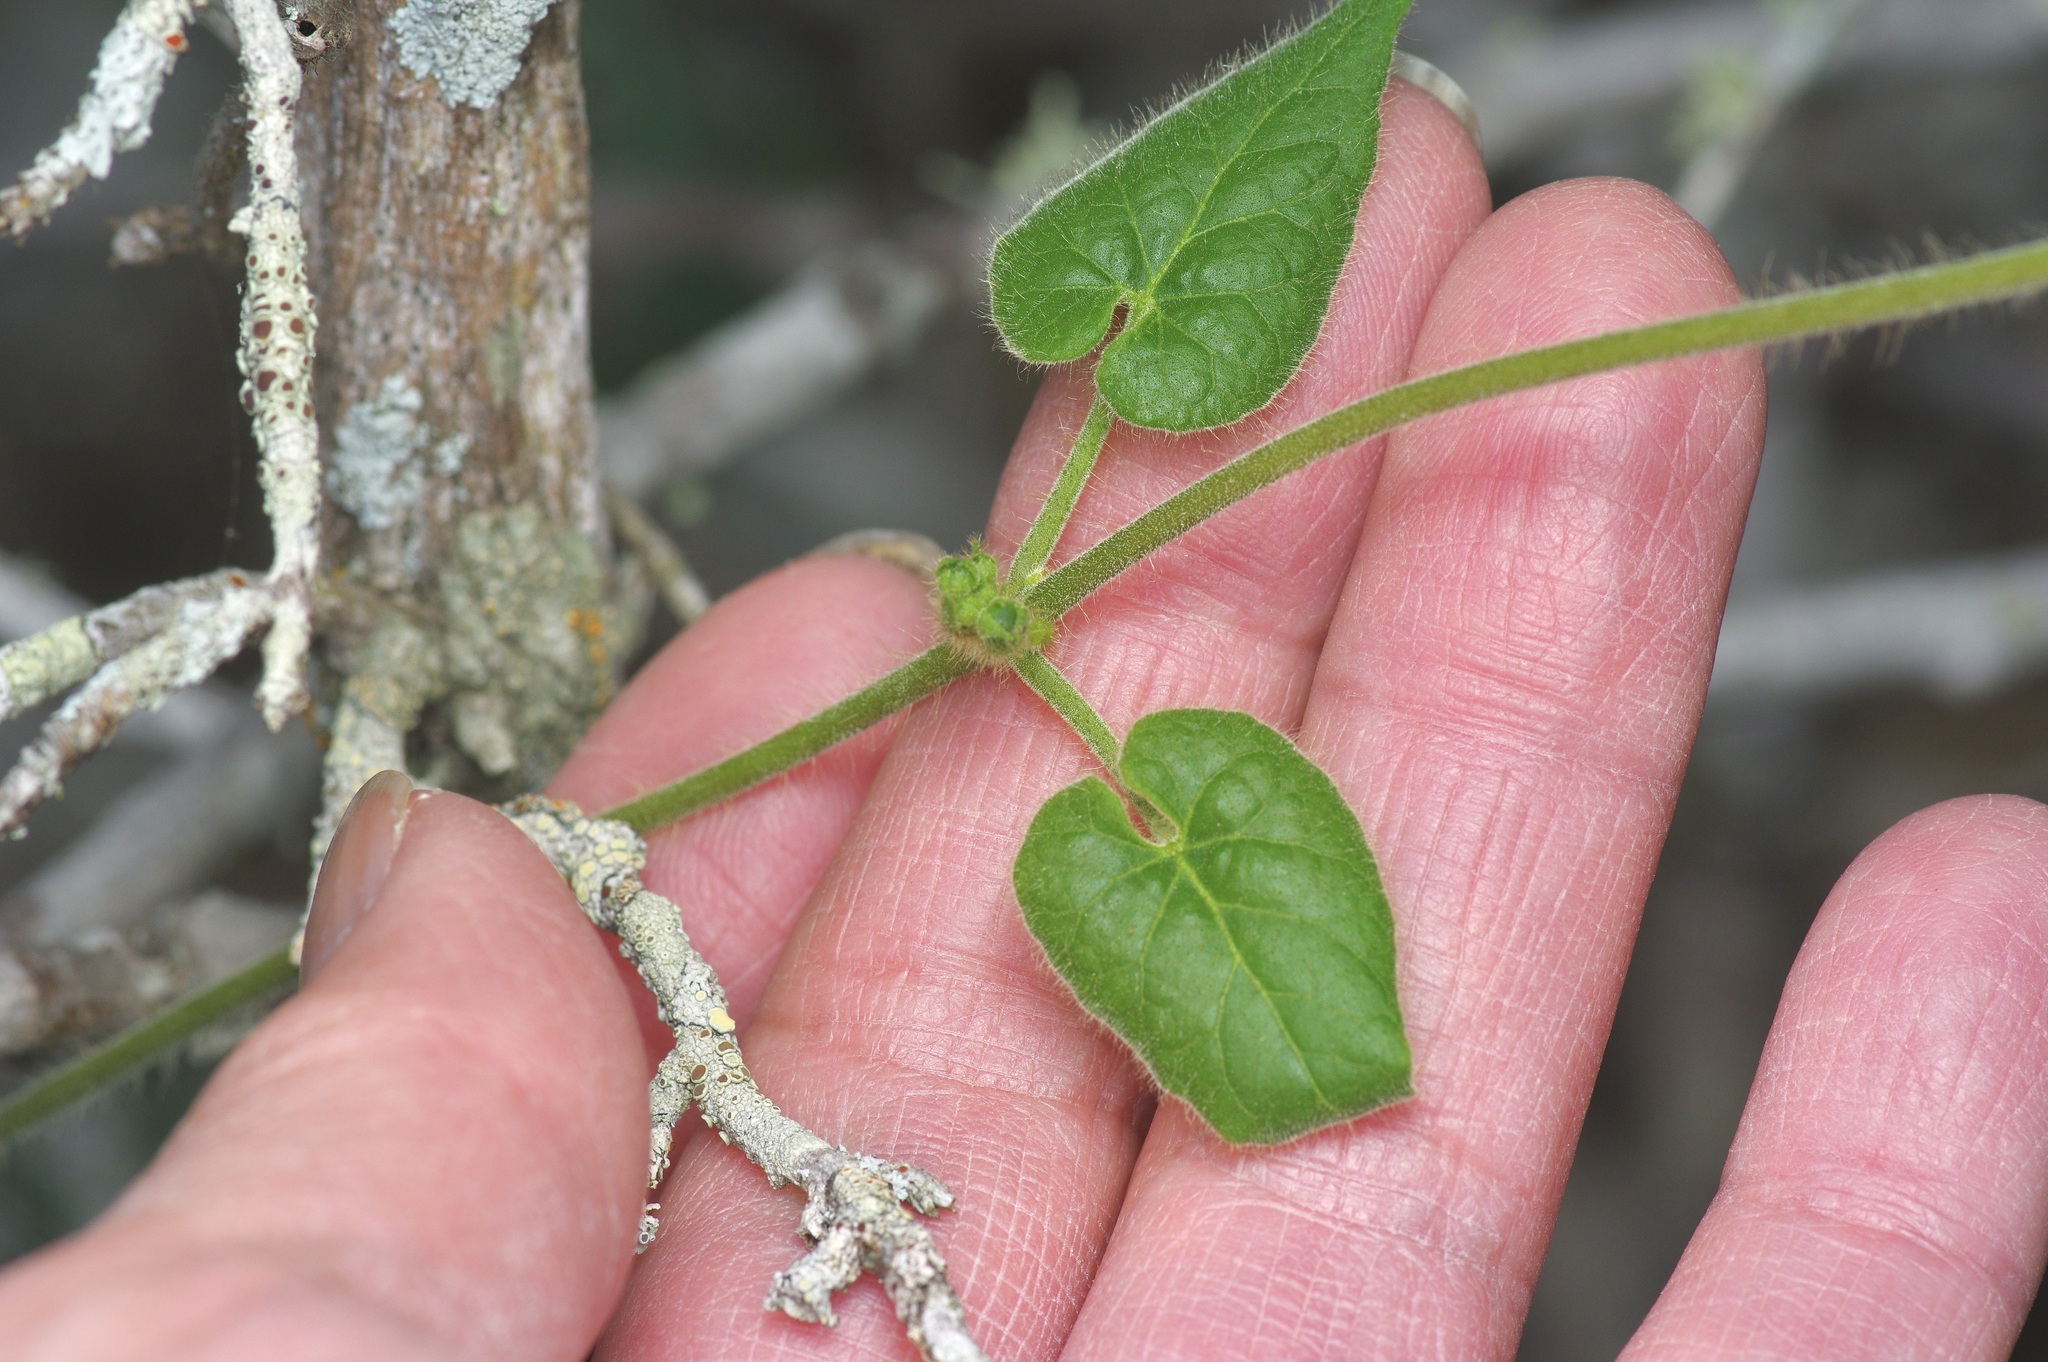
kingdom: Plantae
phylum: Tracheophyta
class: Magnoliopsida
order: Gentianales
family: Apocynaceae
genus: Dictyanthus
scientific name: Dictyanthus reticulatus
